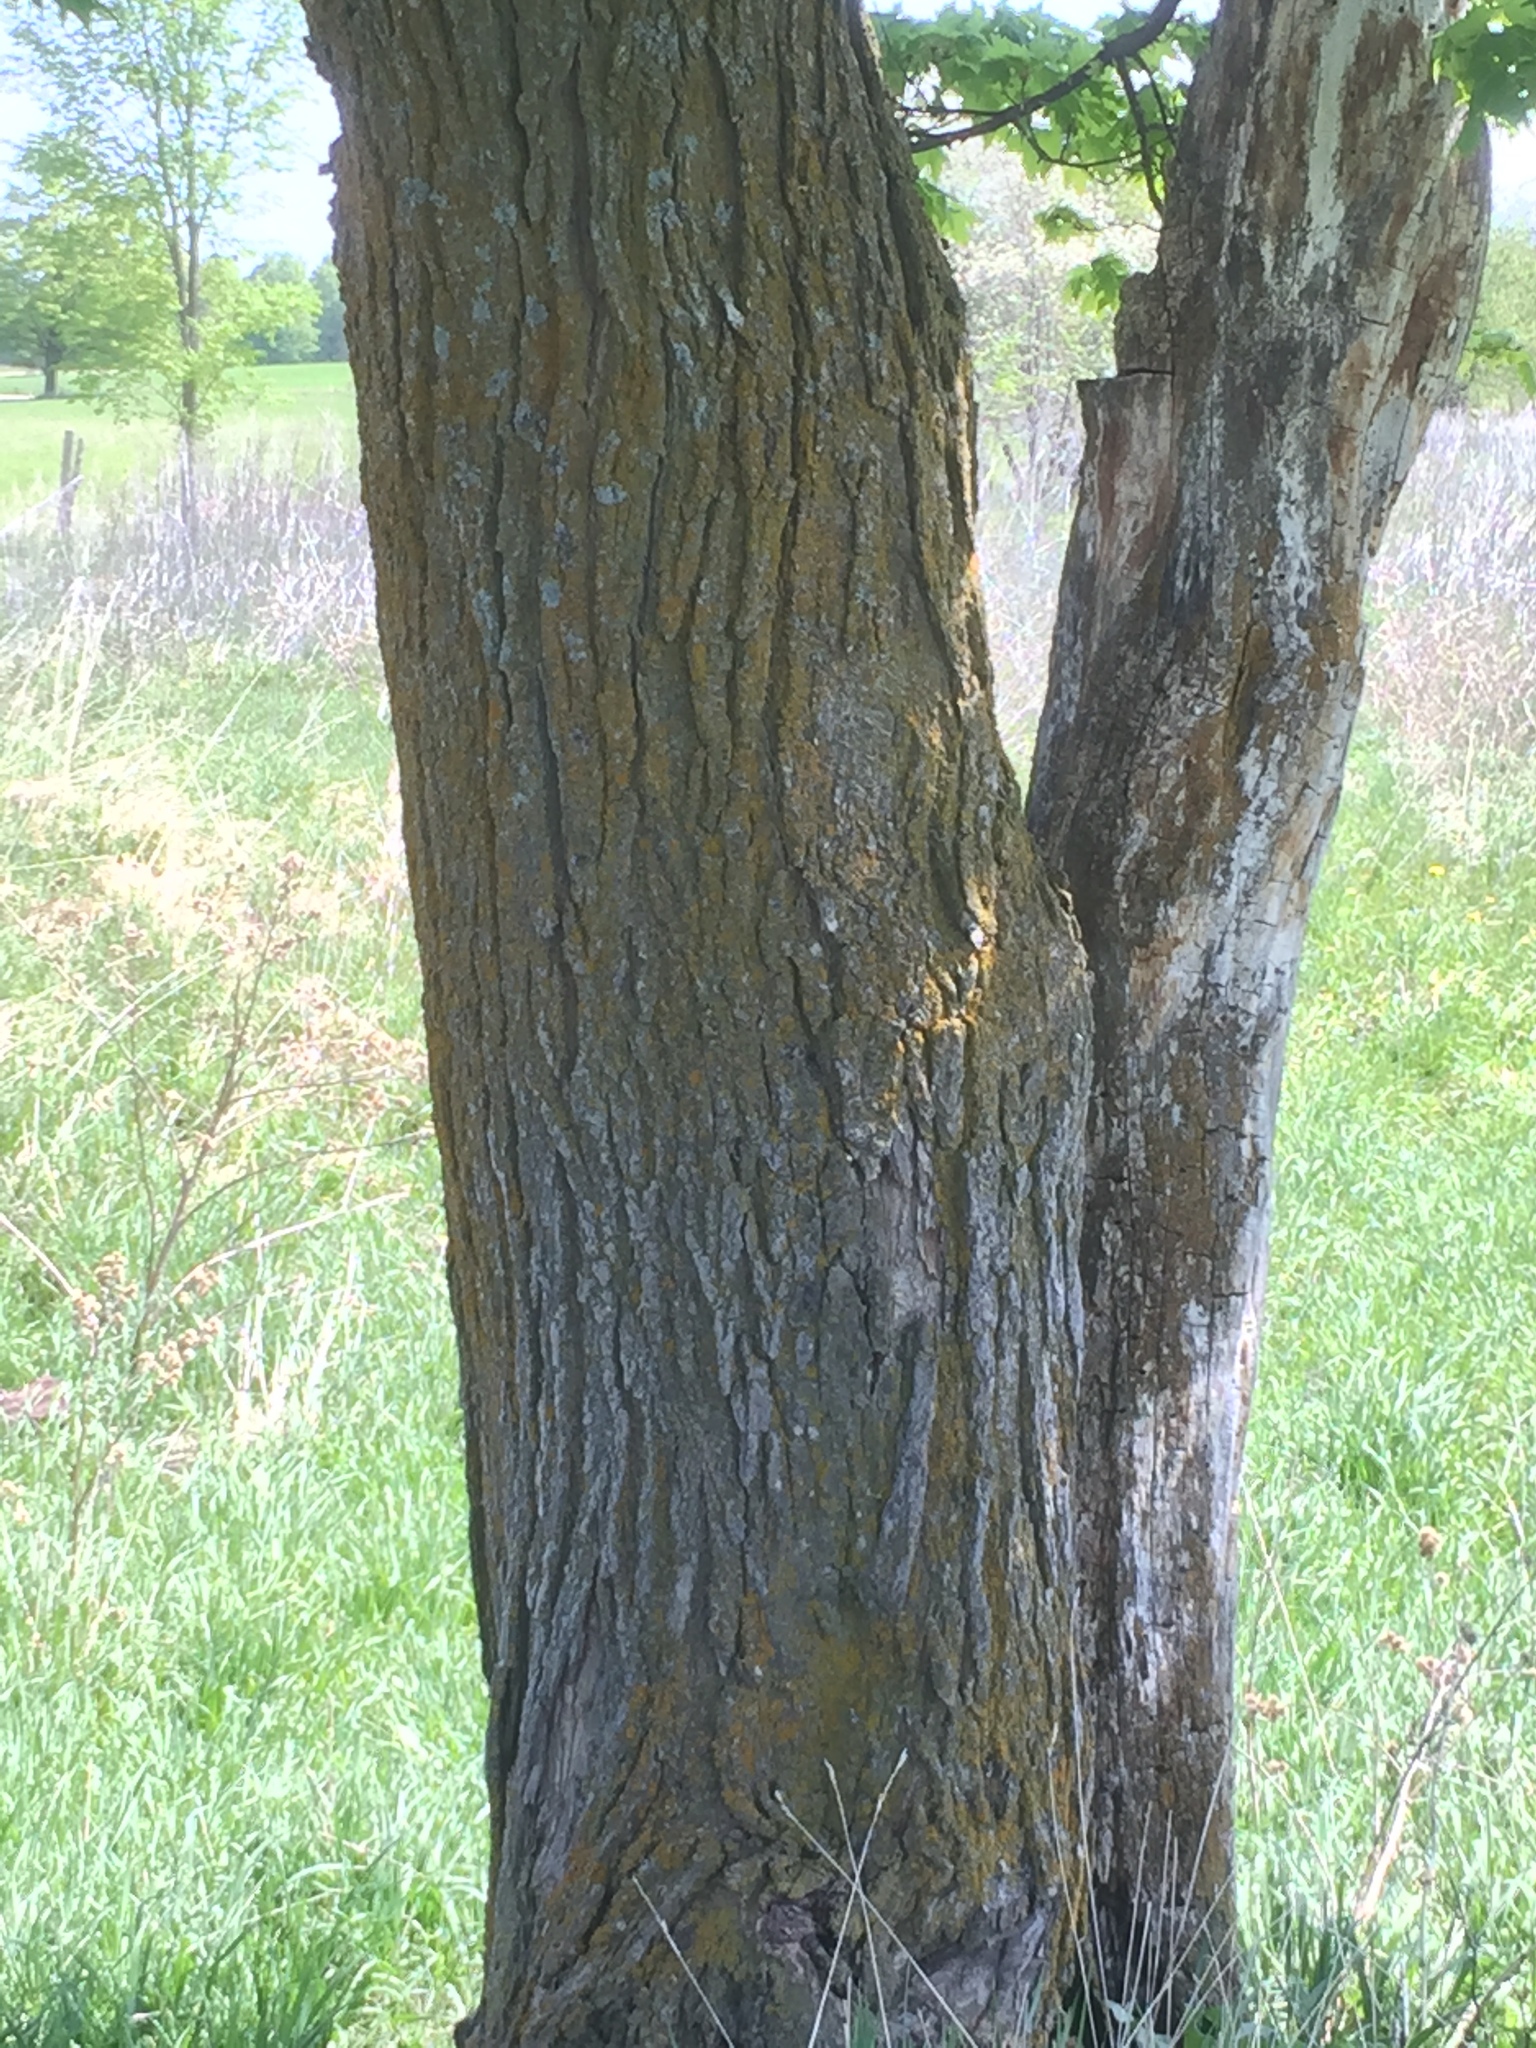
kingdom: Plantae
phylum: Tracheophyta
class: Magnoliopsida
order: Sapindales
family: Sapindaceae
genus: Acer
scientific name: Acer saccharum
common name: Sugar maple
